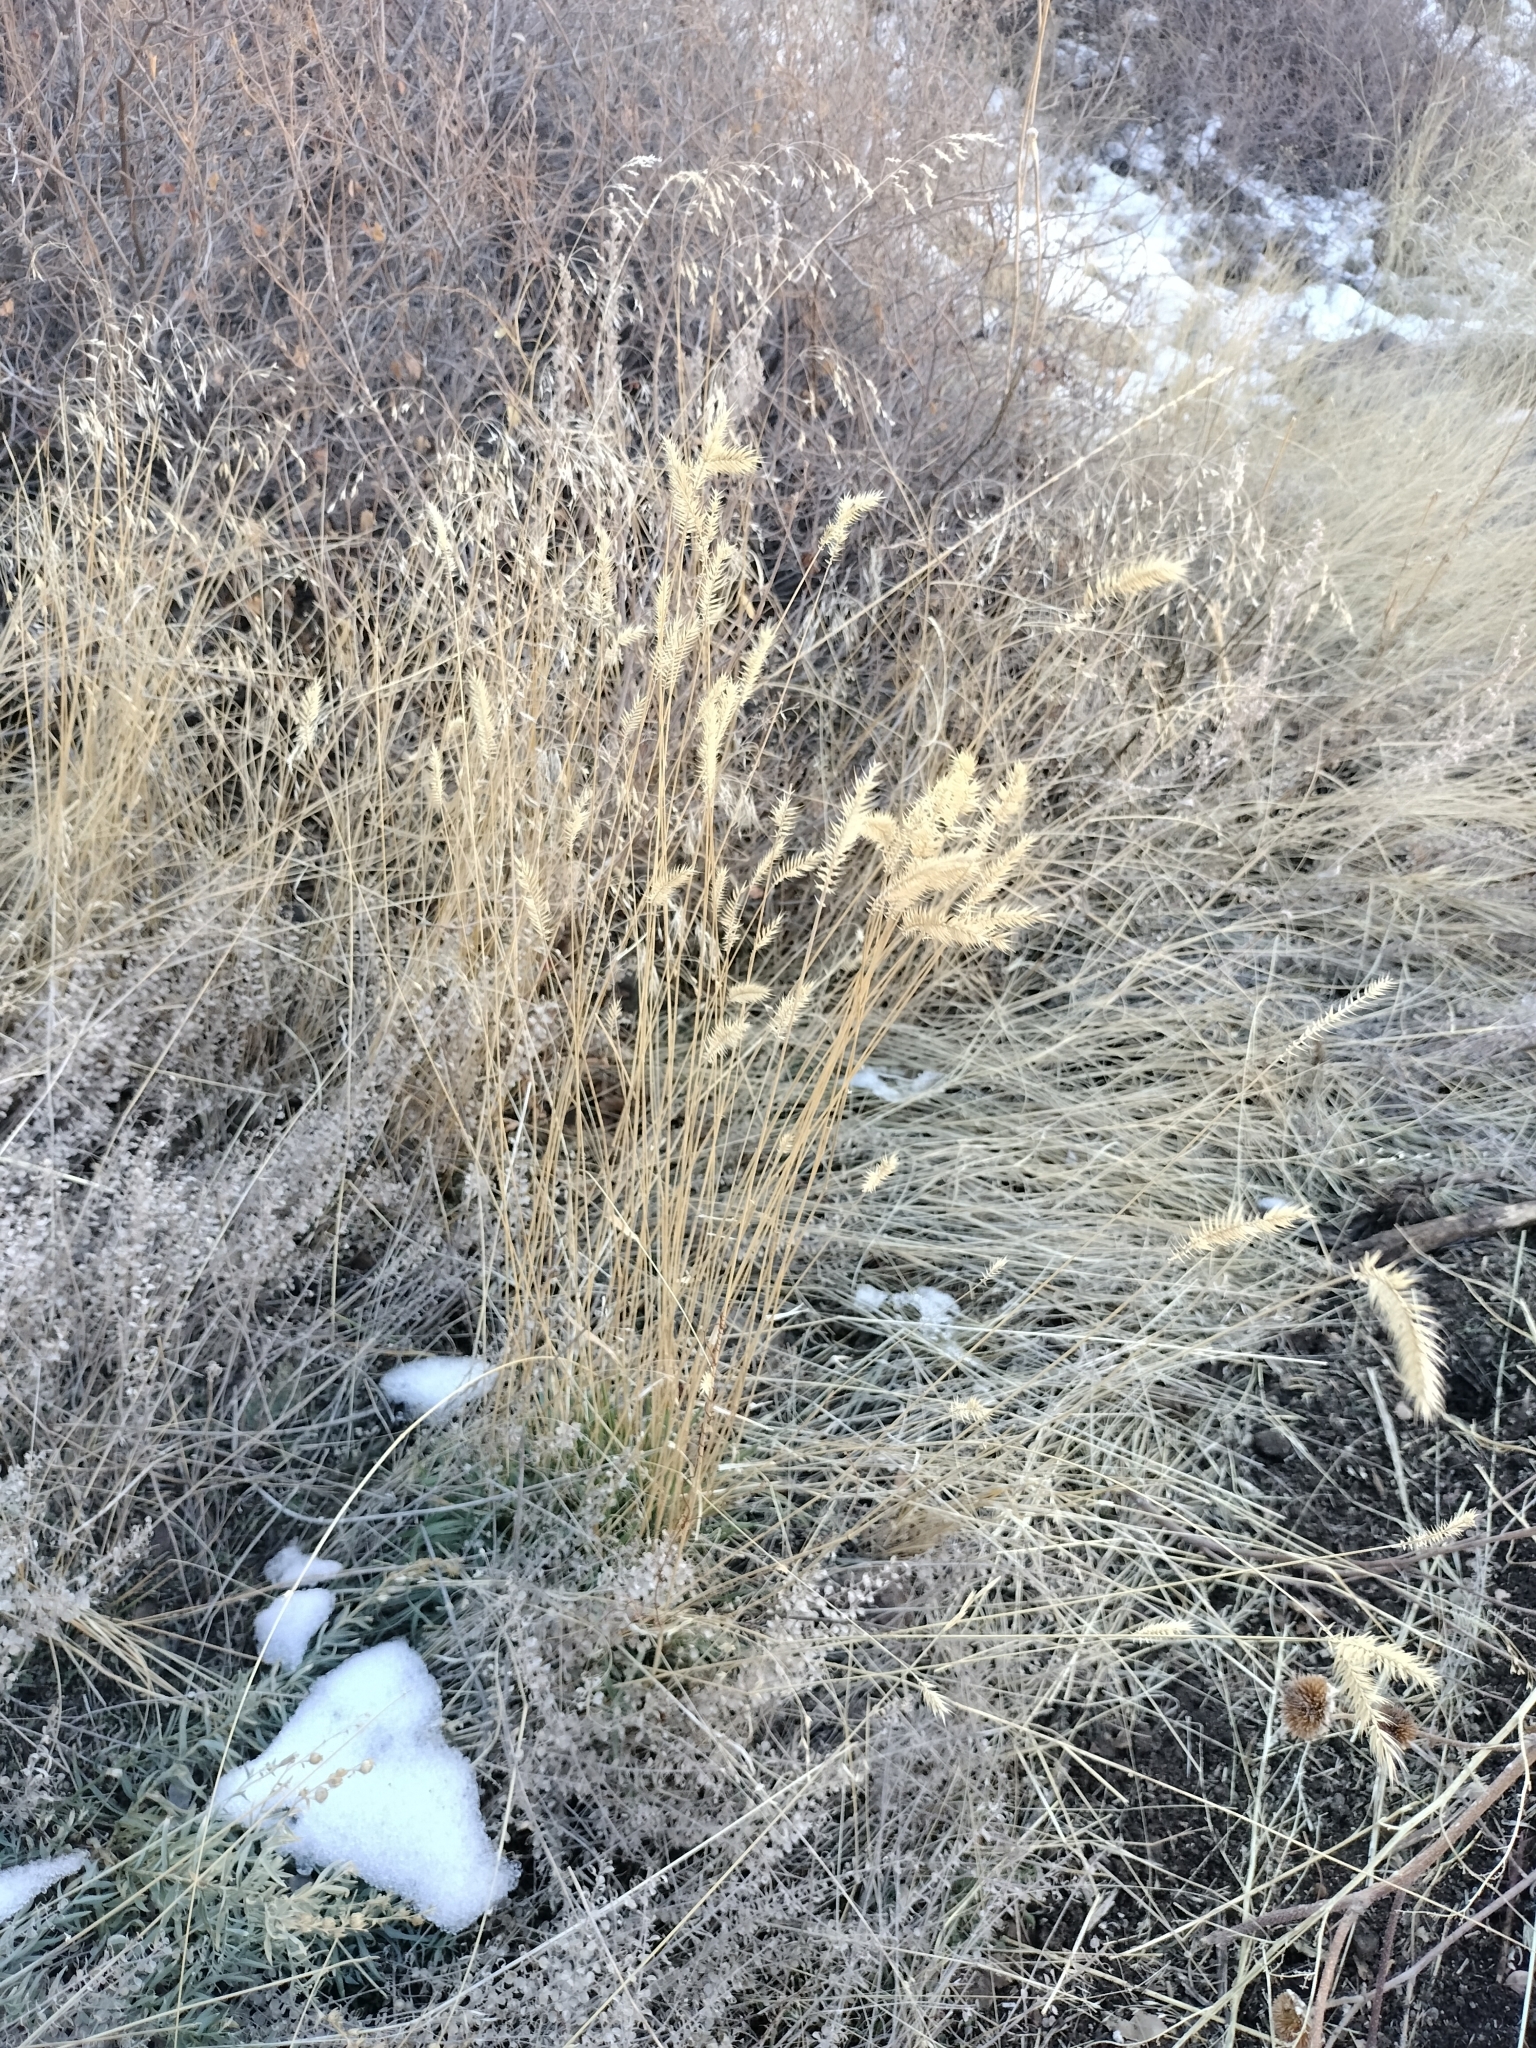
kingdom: Plantae
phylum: Tracheophyta
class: Liliopsida
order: Poales
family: Poaceae
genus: Agropyron
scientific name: Agropyron cristatum
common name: Crested wheatgrass
